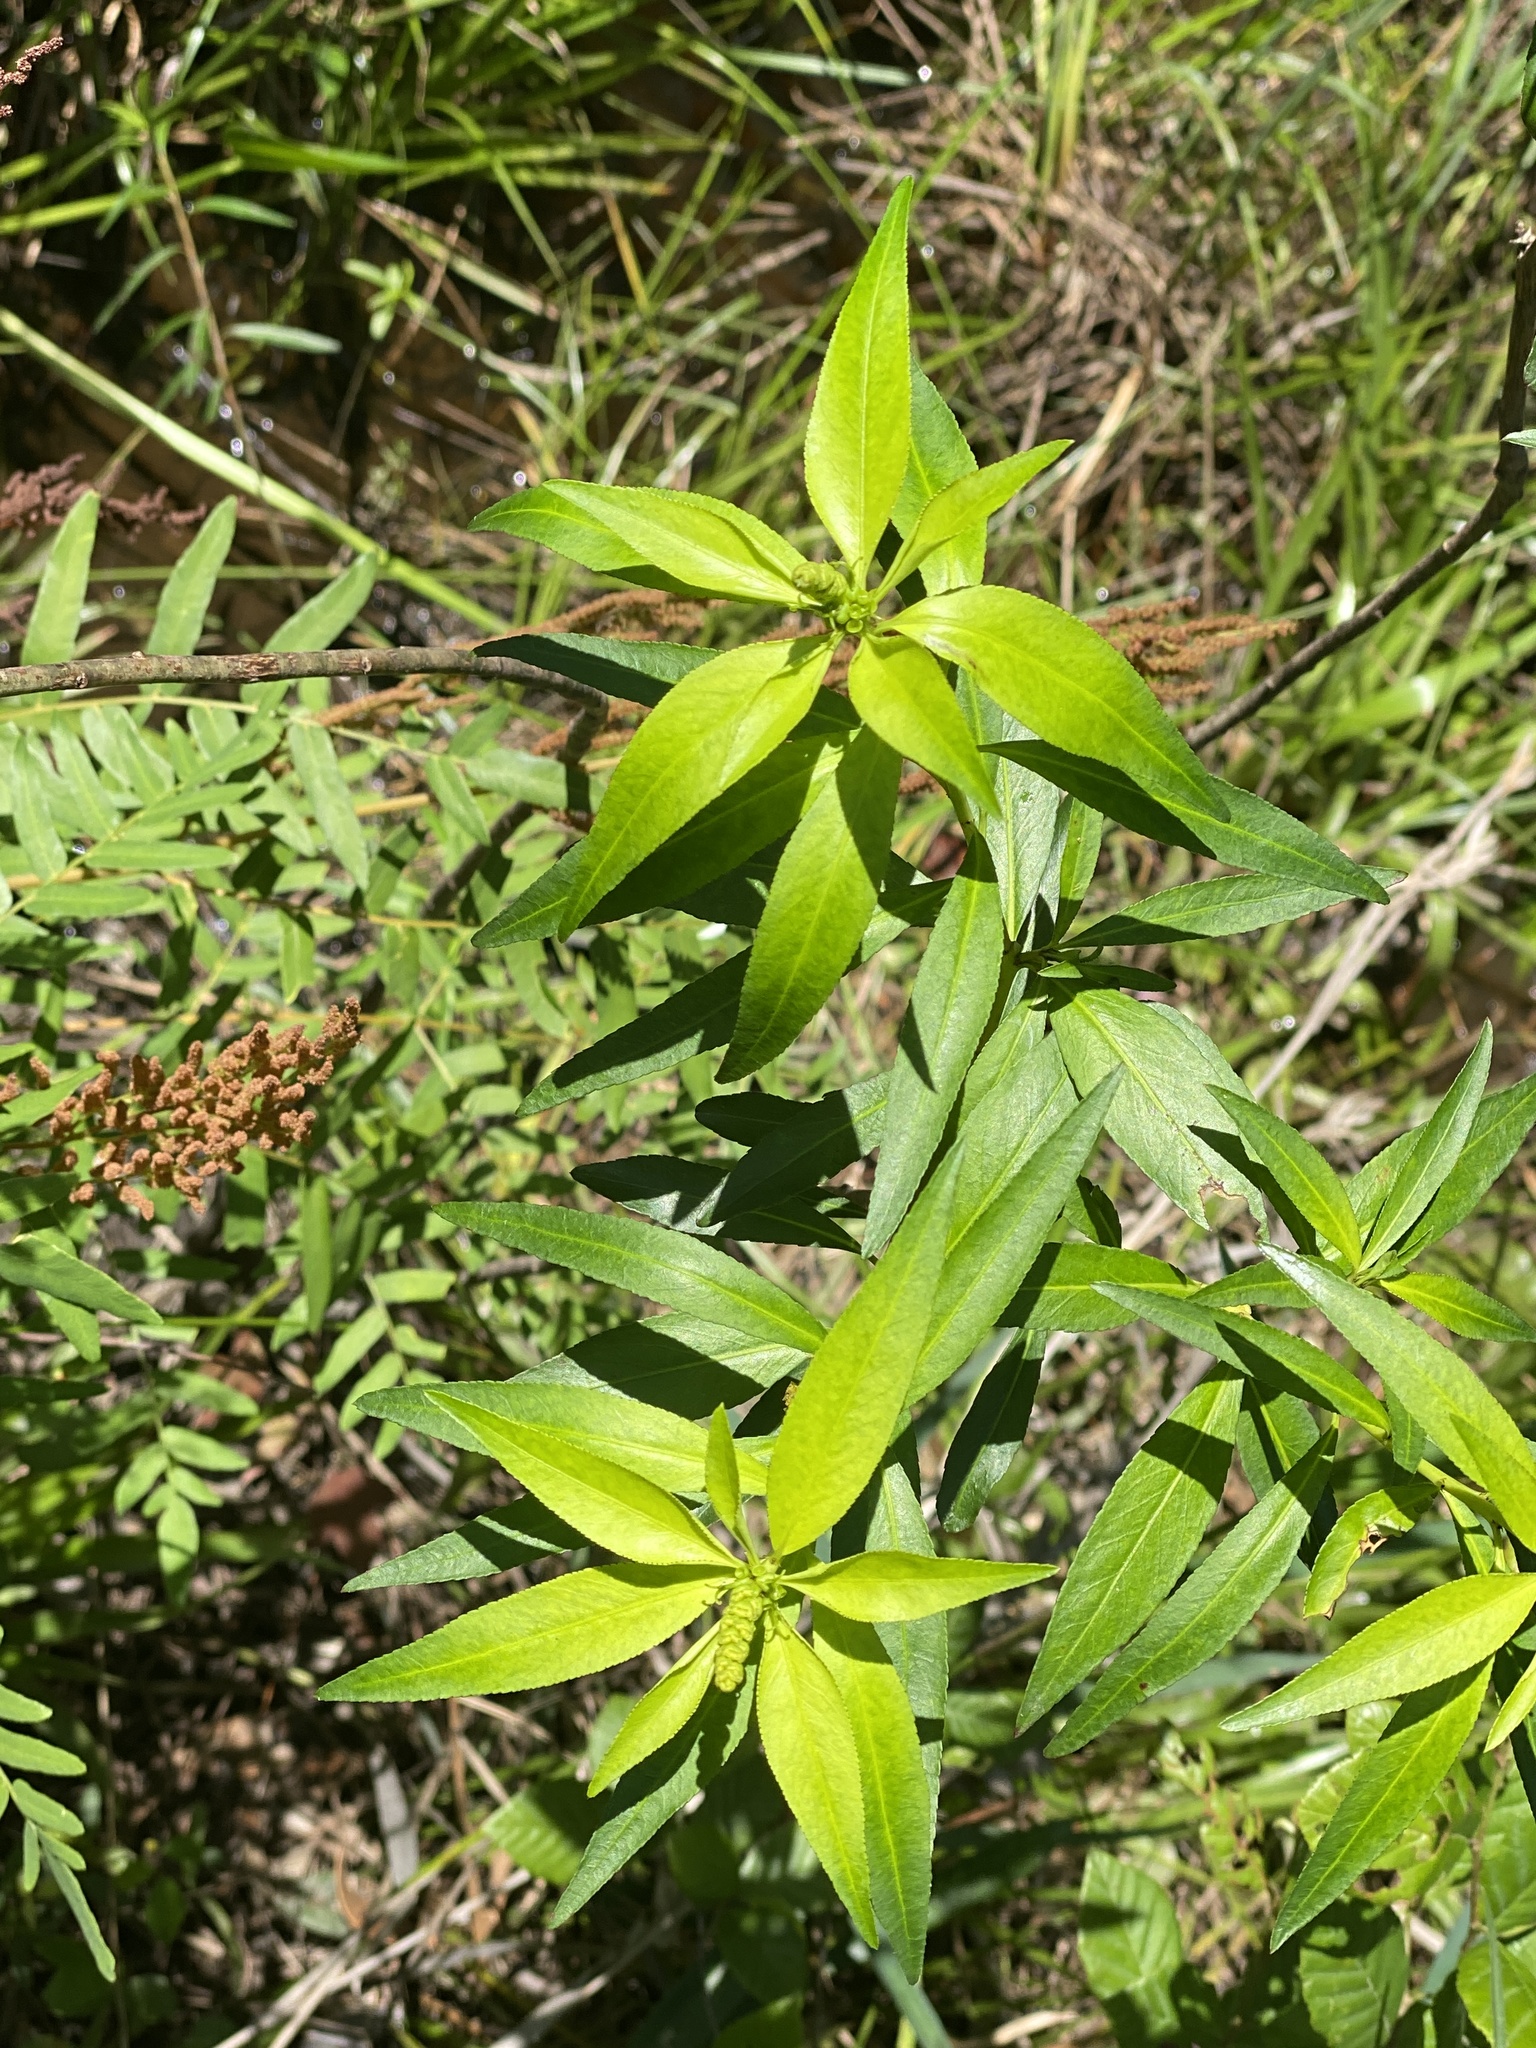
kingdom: Plantae
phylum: Tracheophyta
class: Magnoliopsida
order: Malpighiales
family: Euphorbiaceae
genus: Stillingia
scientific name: Stillingia aquatica
